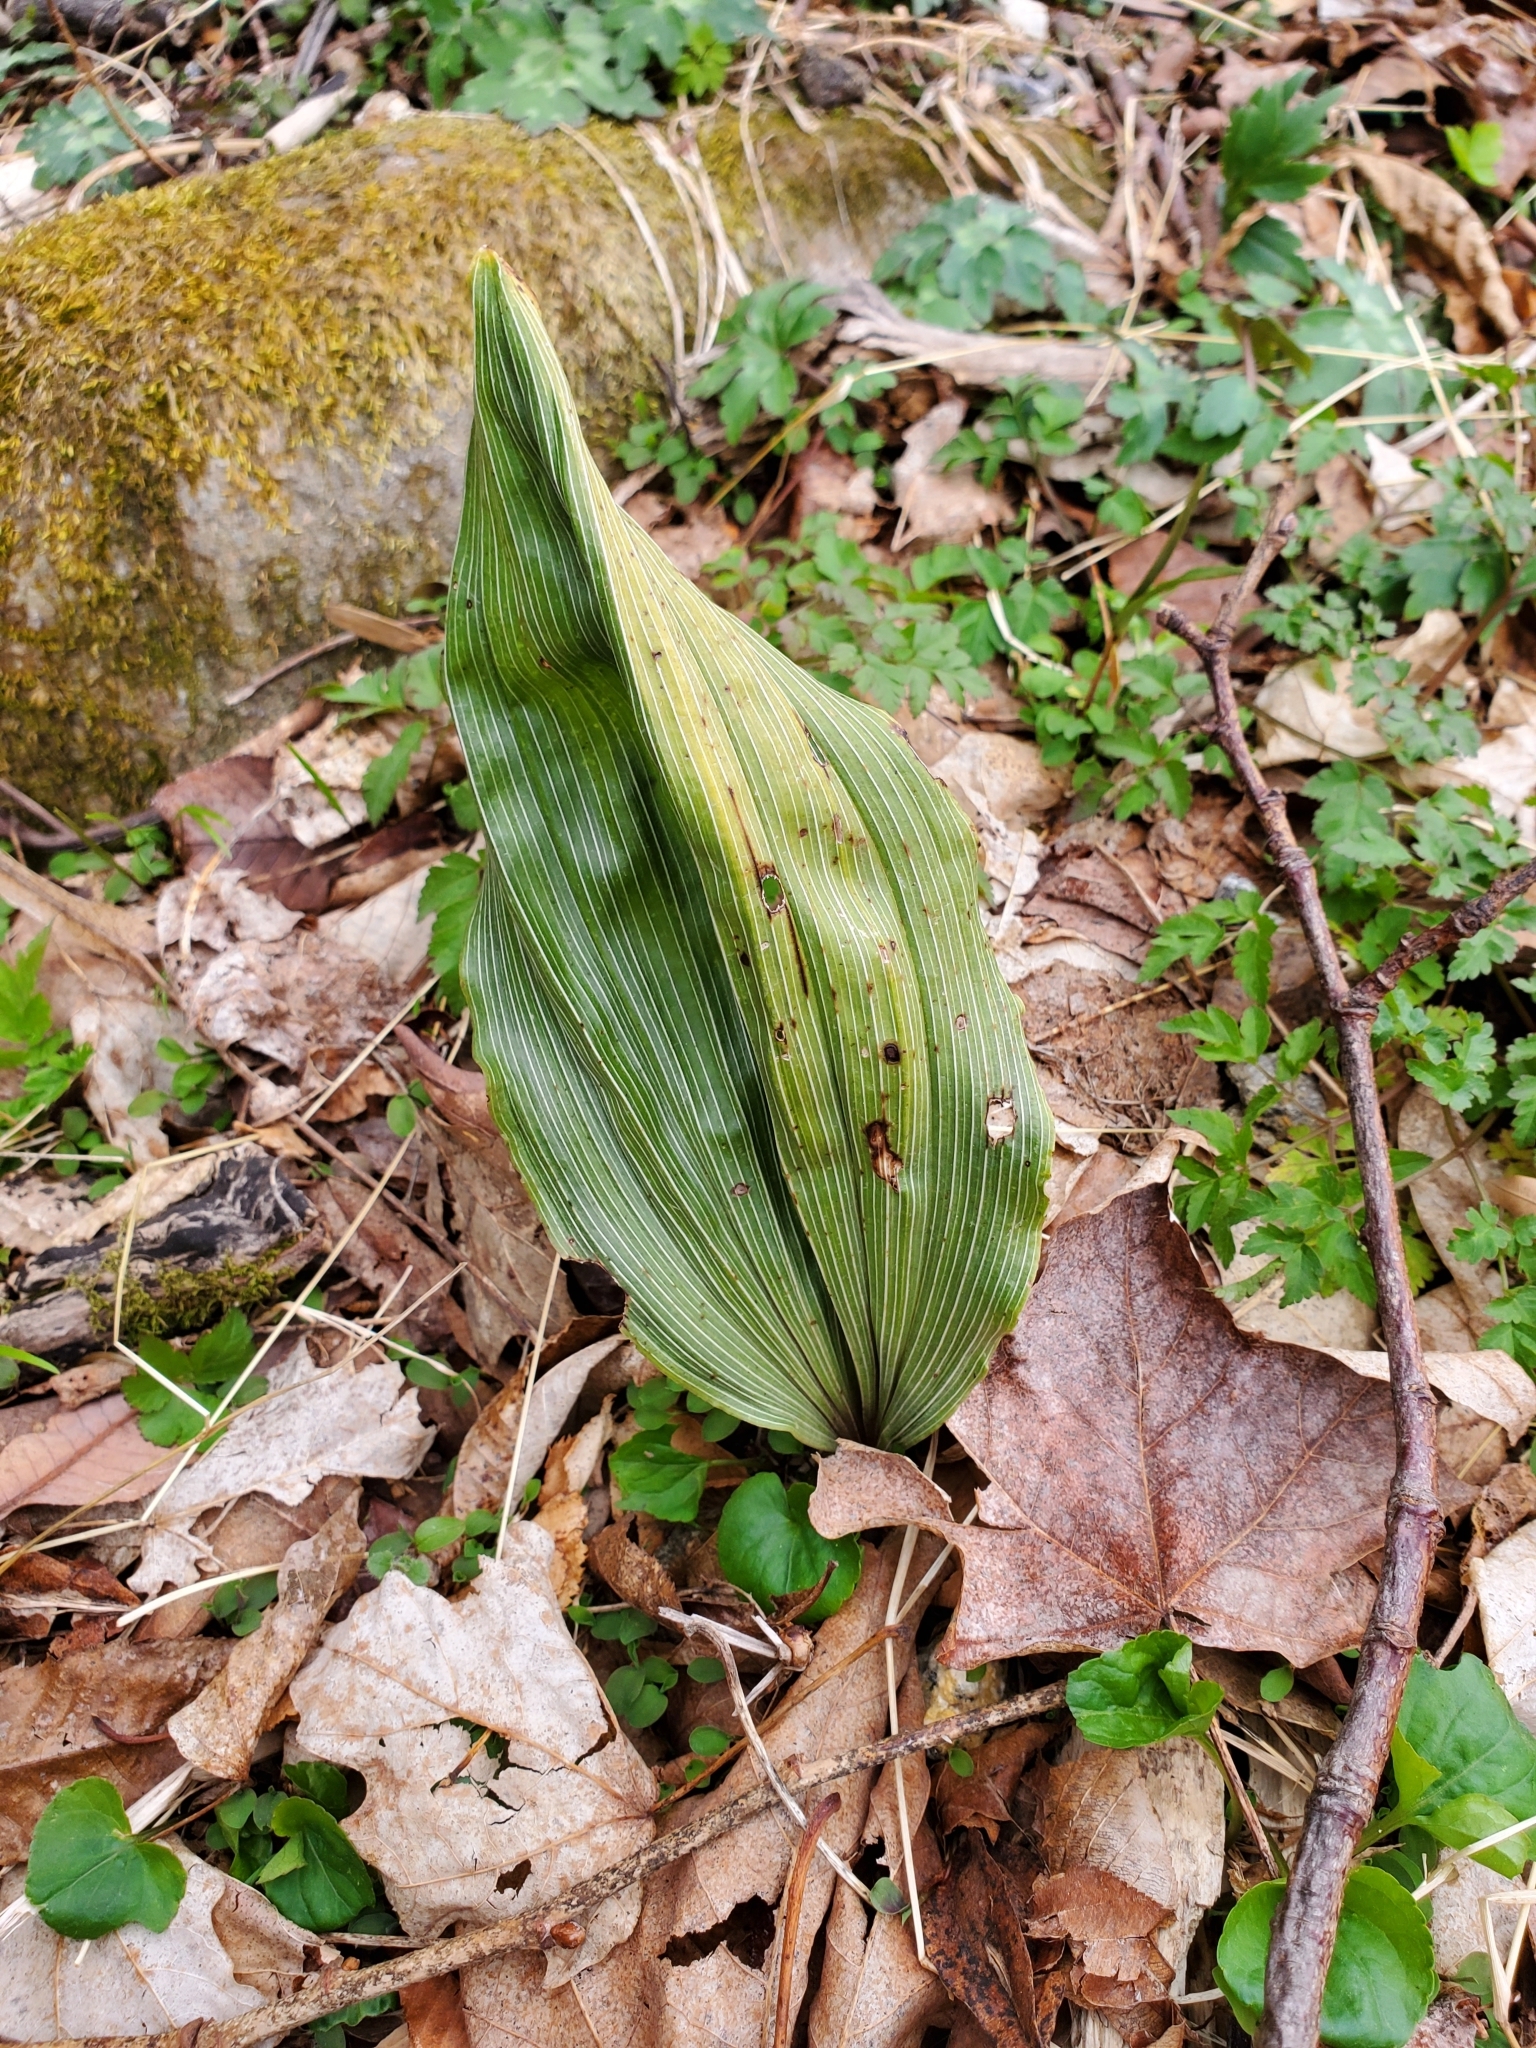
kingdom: Plantae
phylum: Tracheophyta
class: Liliopsida
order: Asparagales
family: Orchidaceae
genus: Aplectrum
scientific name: Aplectrum hyemale
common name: Adam-and-eve
